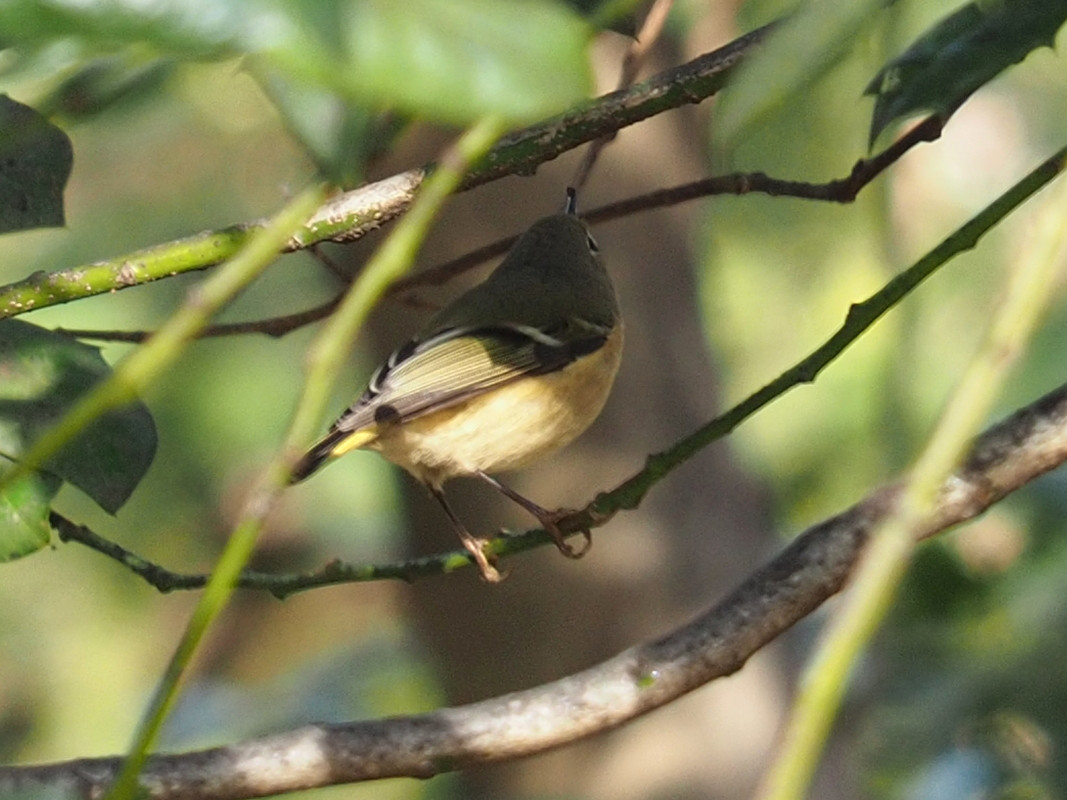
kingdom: Animalia
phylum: Chordata
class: Aves
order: Passeriformes
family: Regulidae
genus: Regulus
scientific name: Regulus calendula
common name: Ruby-crowned kinglet
